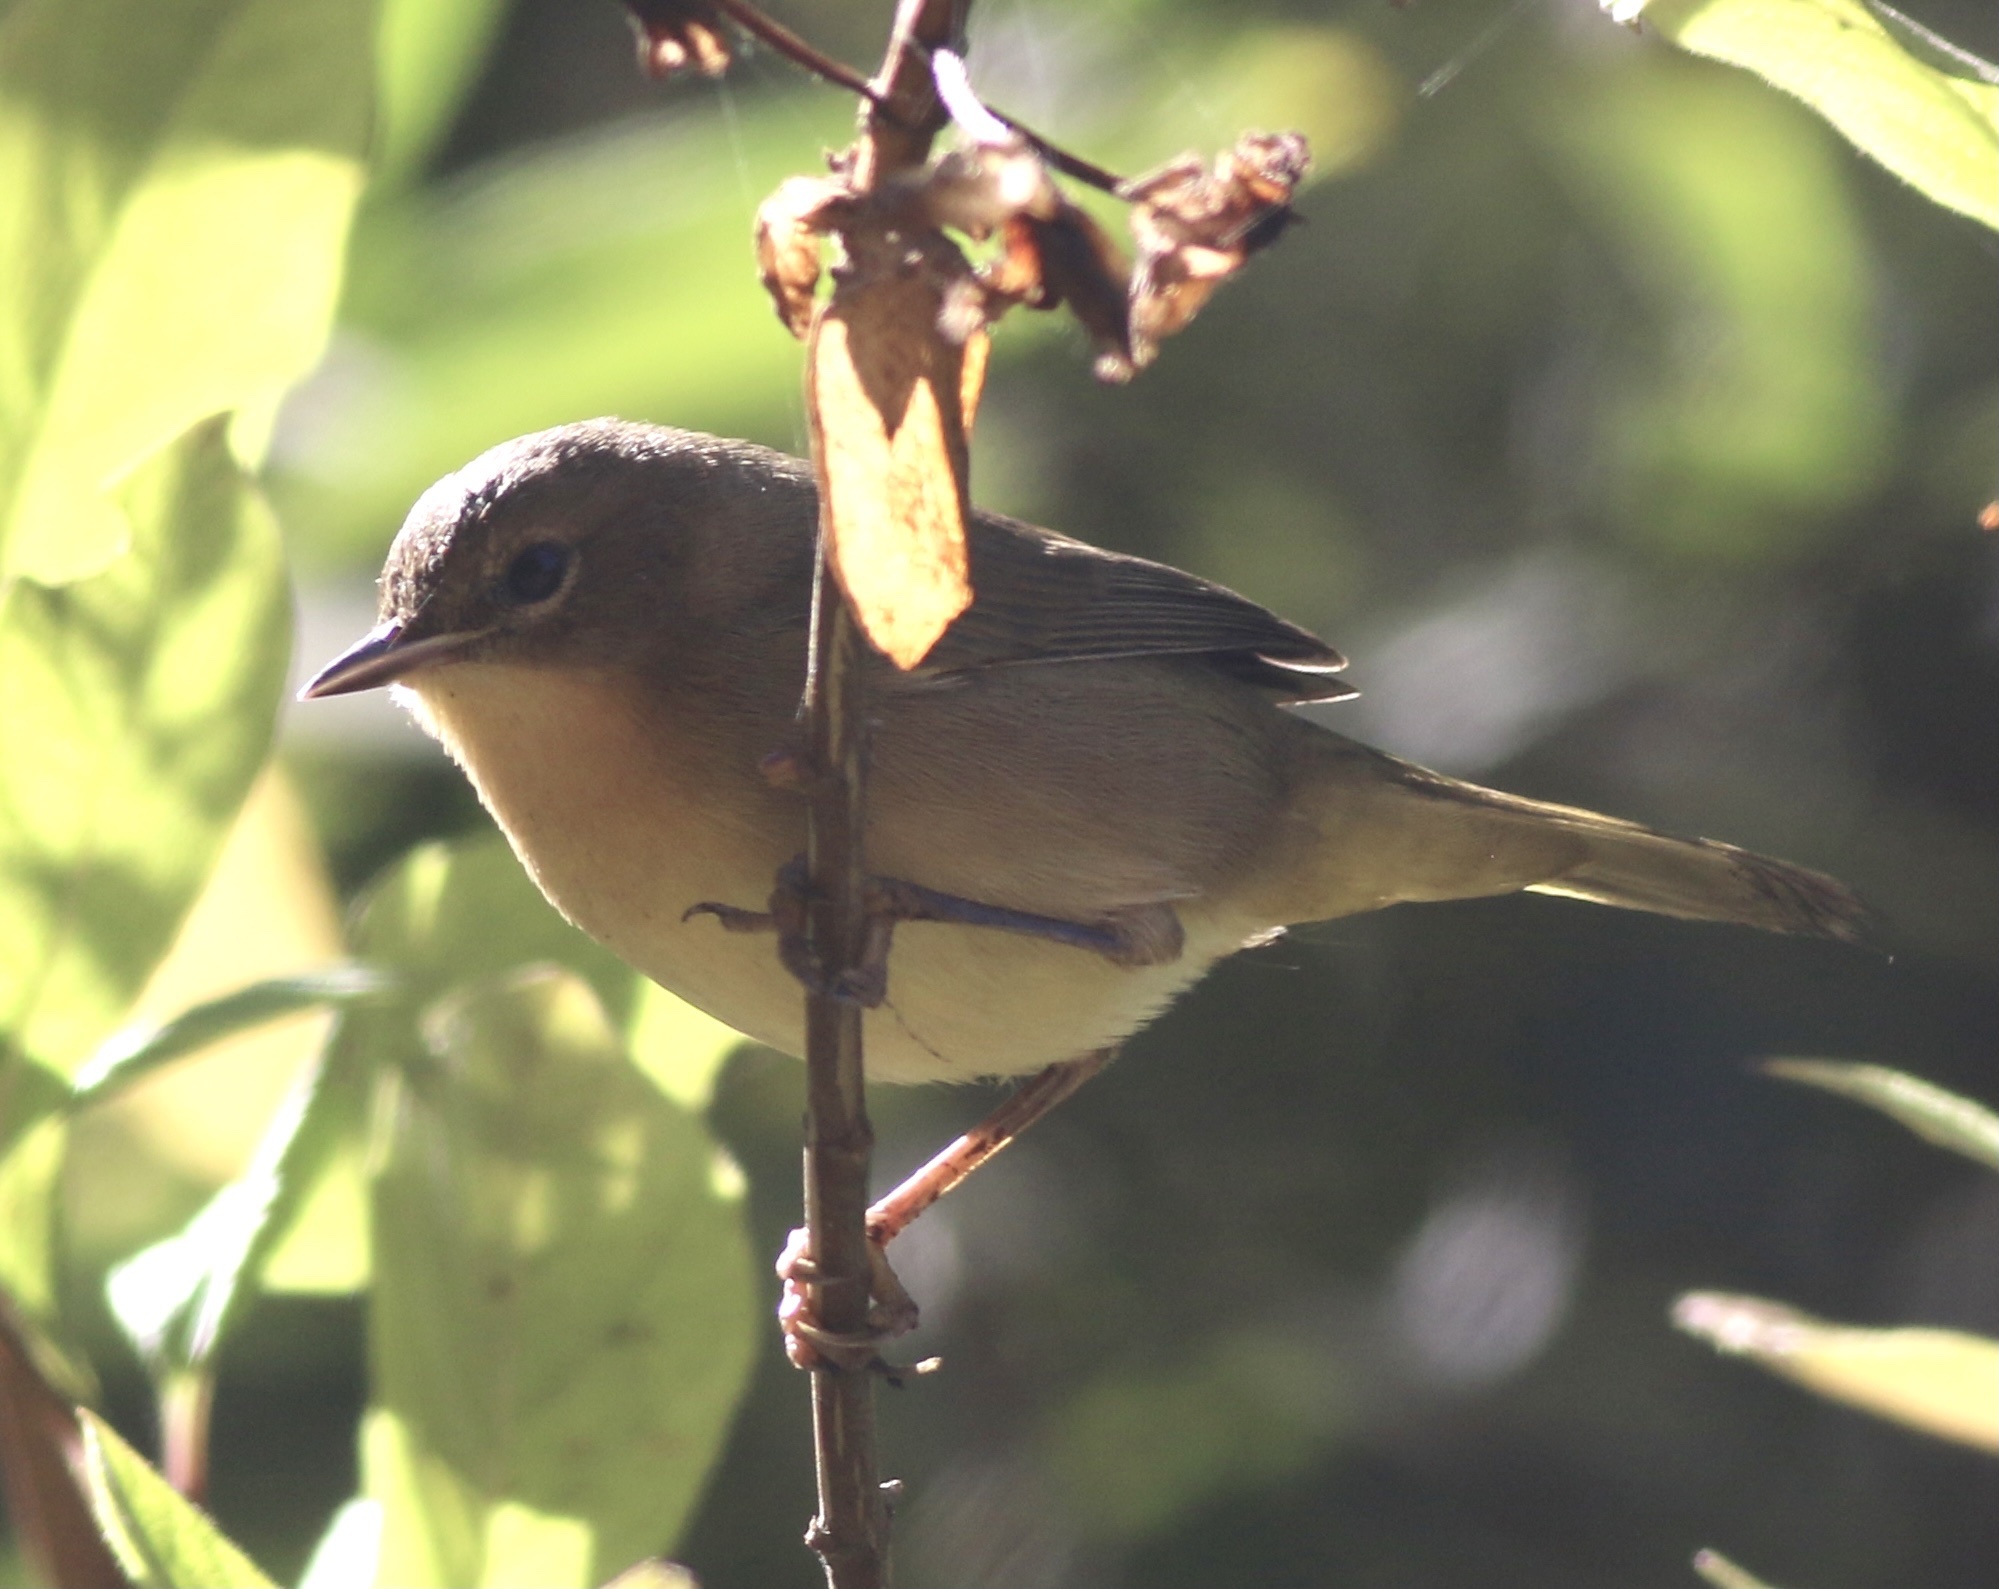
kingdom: Animalia
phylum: Chordata
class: Aves
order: Passeriformes
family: Parulidae
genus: Geothlypis
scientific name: Geothlypis trichas
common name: Common yellowthroat
